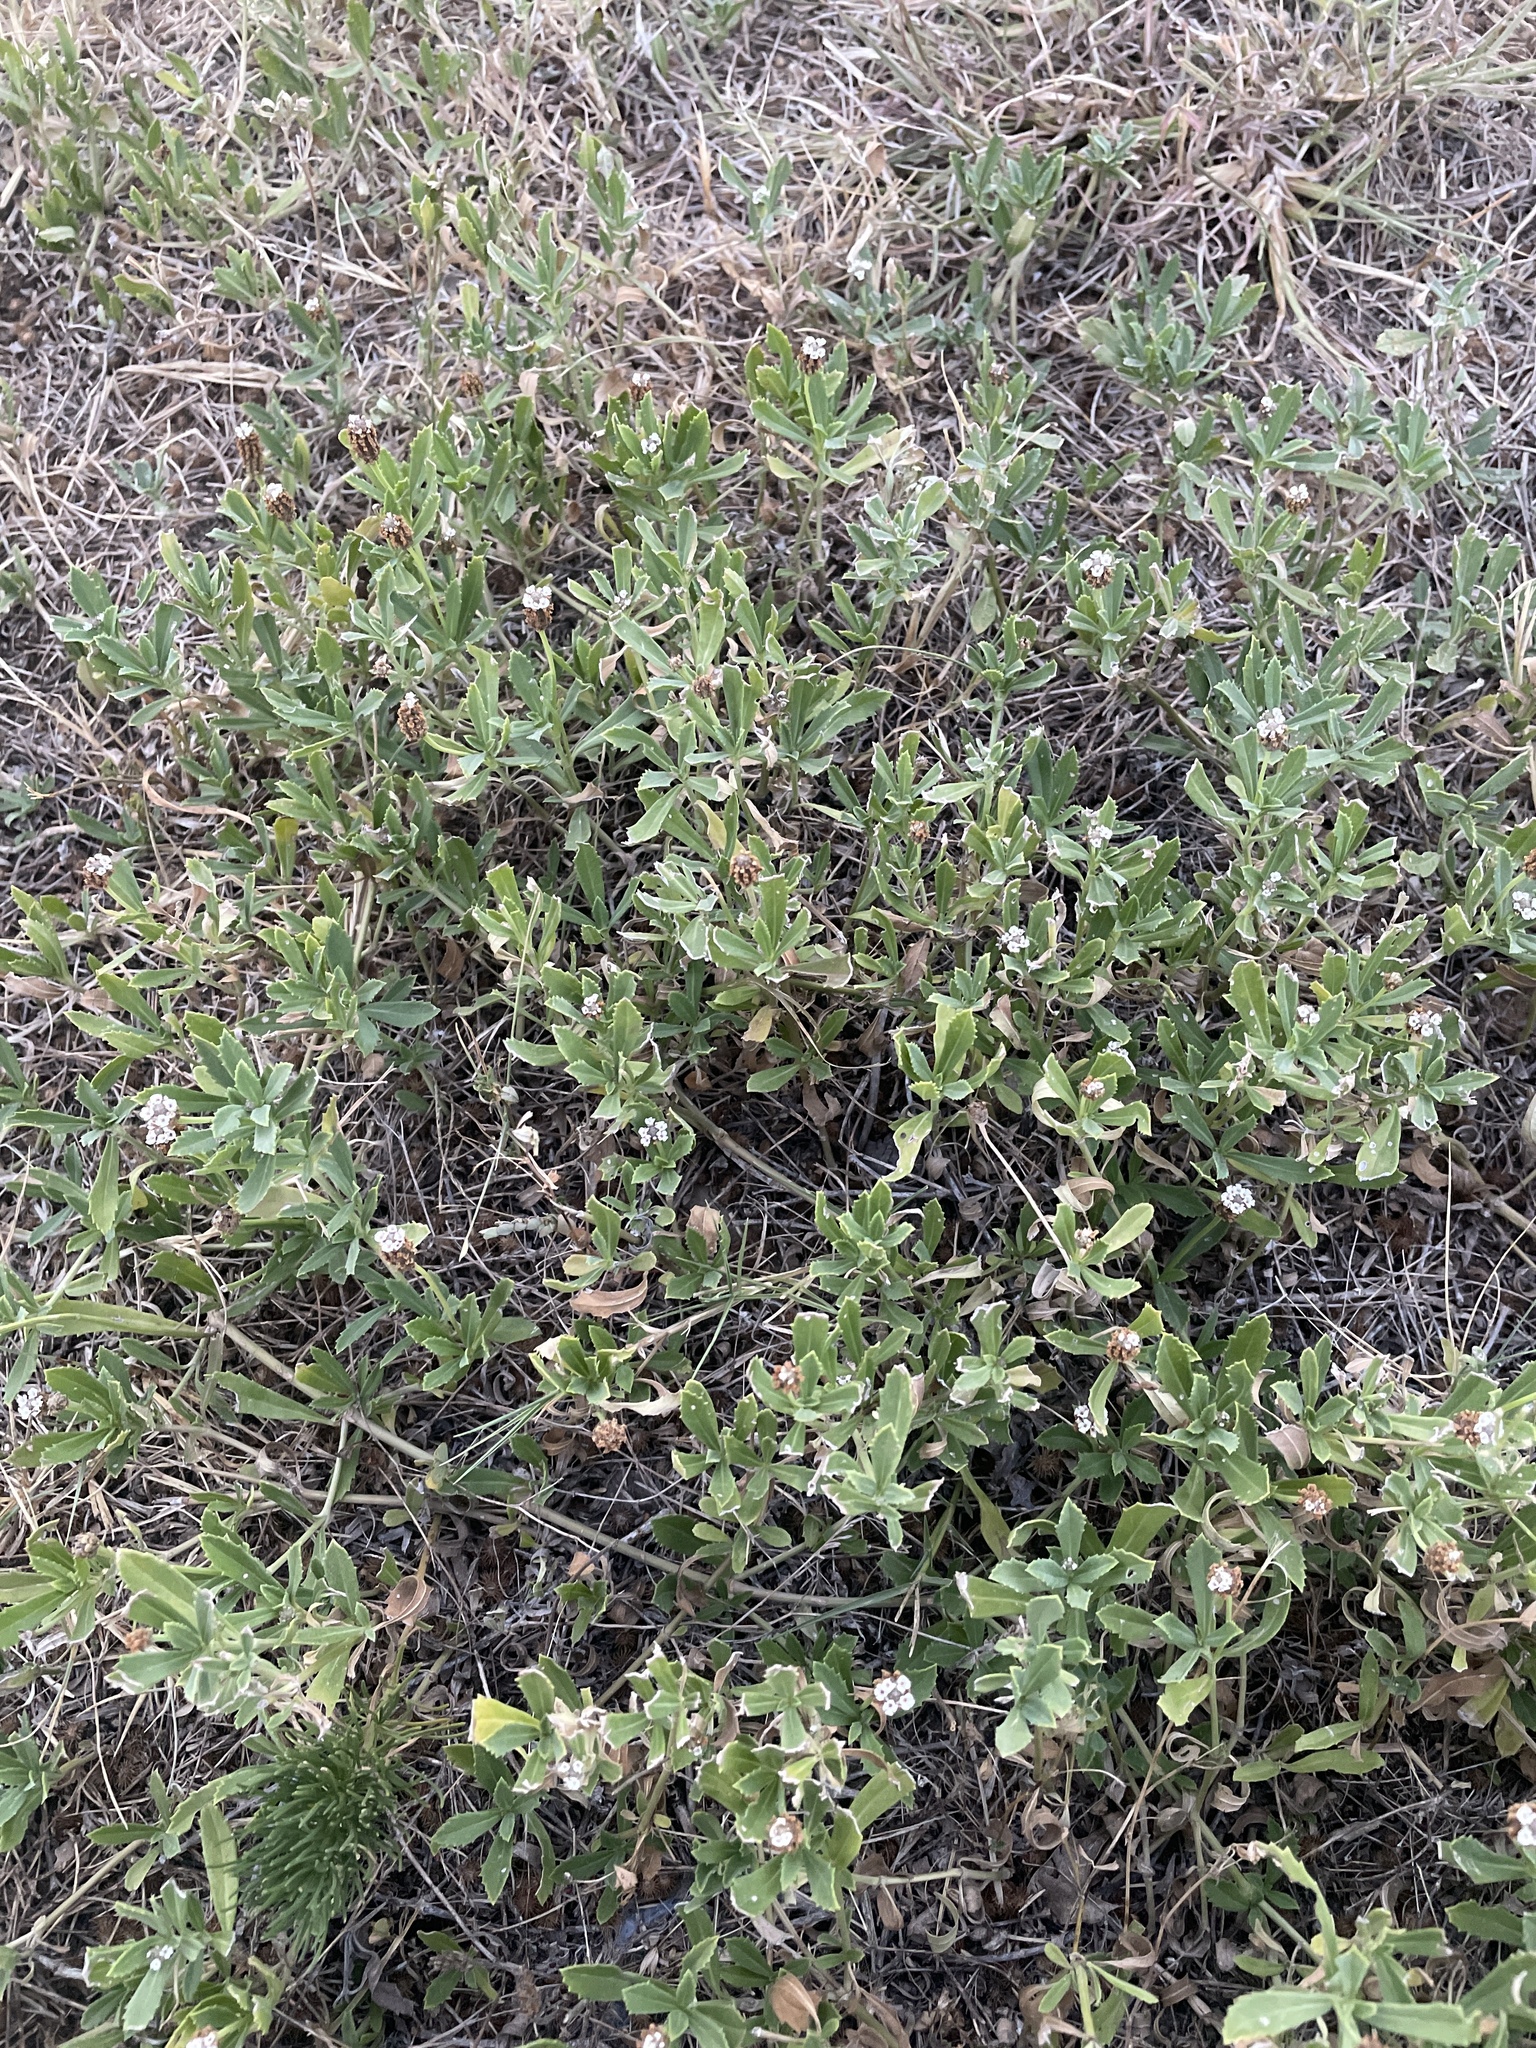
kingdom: Plantae
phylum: Tracheophyta
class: Magnoliopsida
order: Lamiales
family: Verbenaceae
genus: Phyla
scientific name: Phyla nodiflora
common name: Frogfruit
